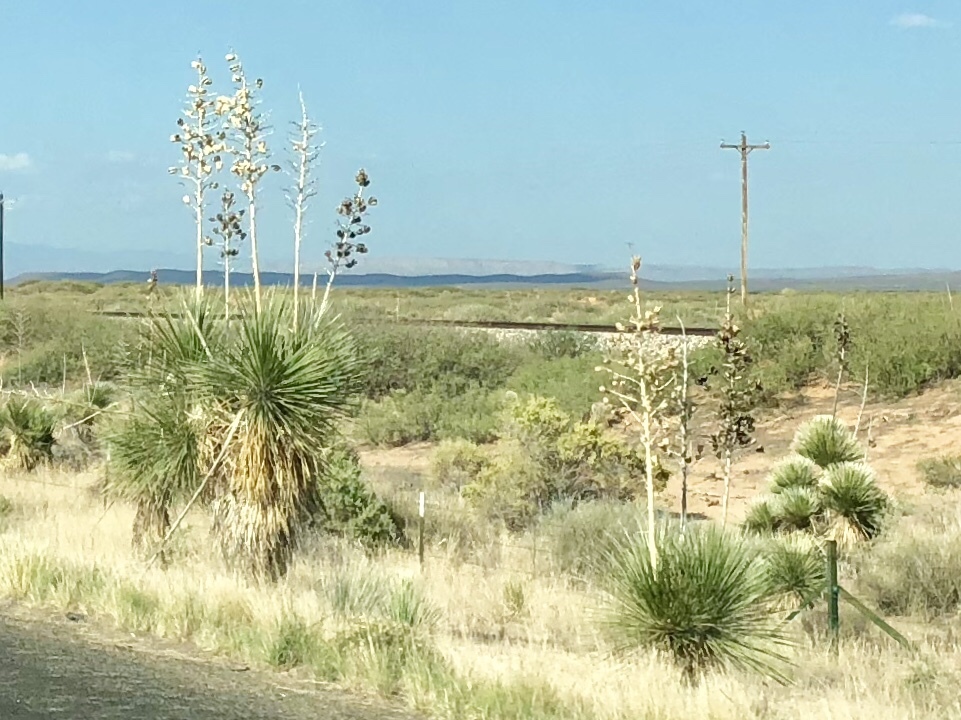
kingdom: Plantae
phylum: Tracheophyta
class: Liliopsida
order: Asparagales
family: Asparagaceae
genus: Yucca
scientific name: Yucca elata
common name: Palmella
